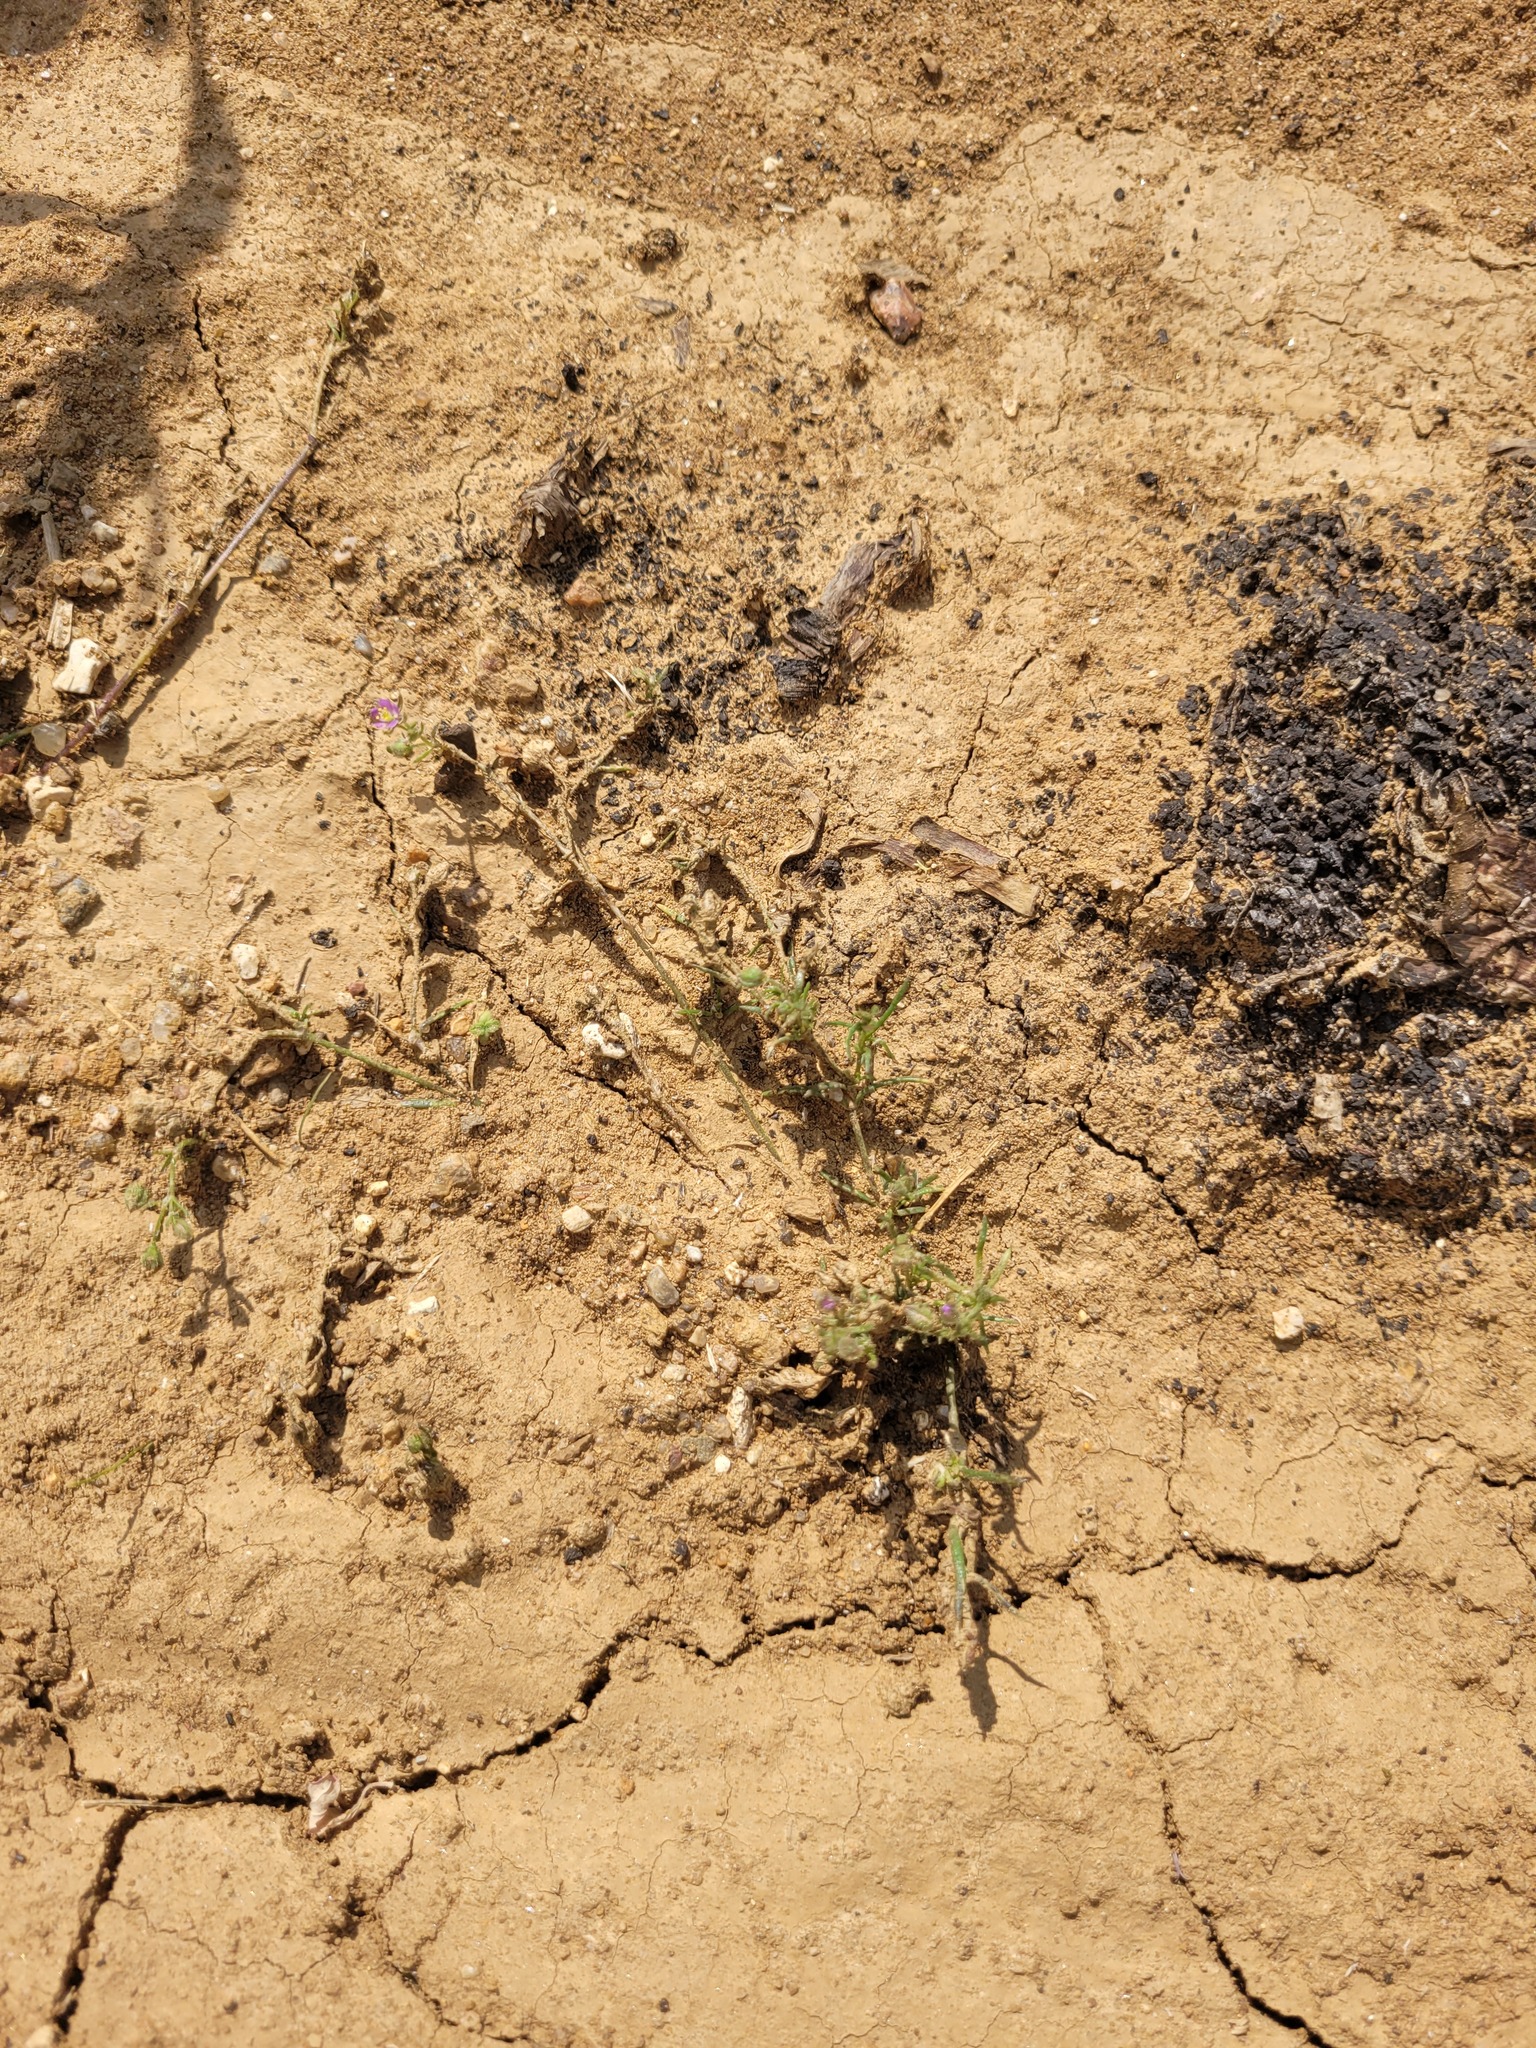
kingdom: Plantae
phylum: Tracheophyta
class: Magnoliopsida
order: Caryophyllales
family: Caryophyllaceae
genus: Spergularia
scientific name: Spergularia rubra
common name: Red sand-spurrey
